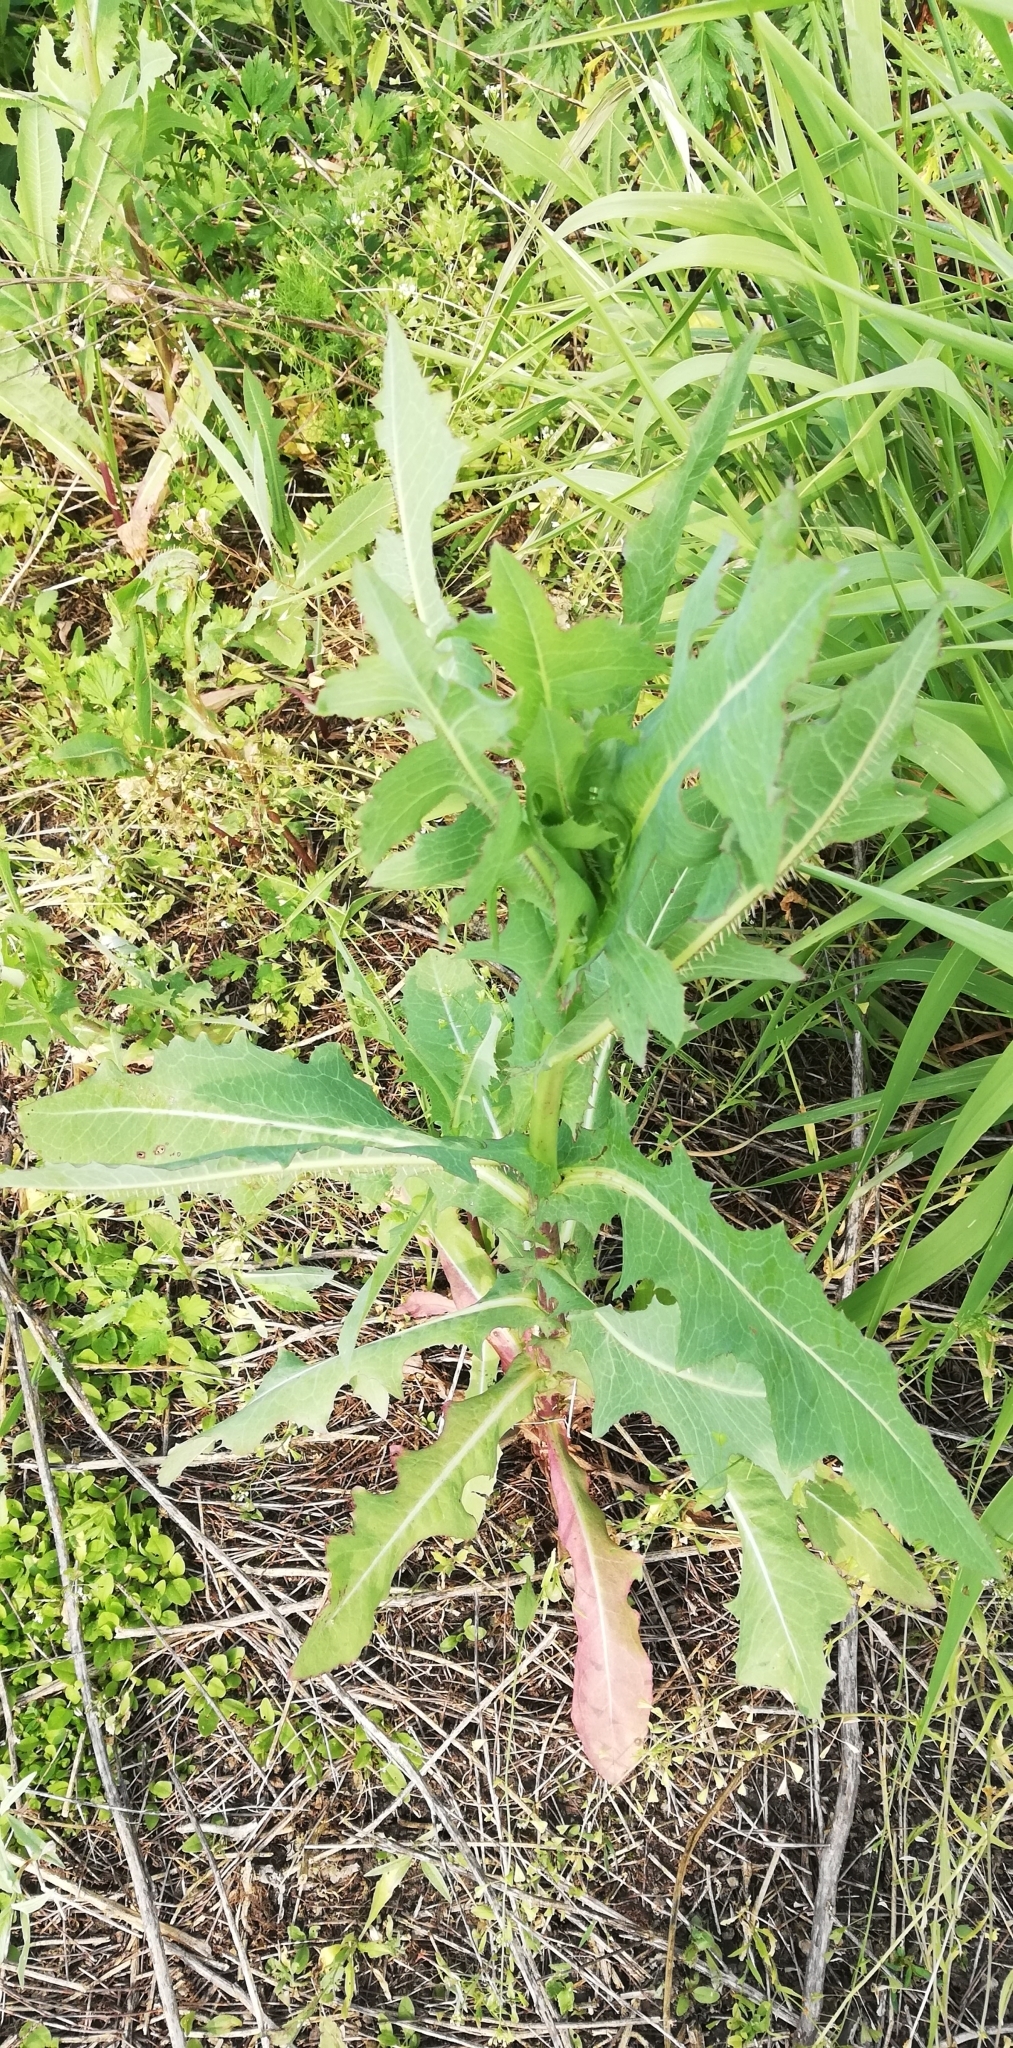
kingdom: Plantae
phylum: Tracheophyta
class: Magnoliopsida
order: Asterales
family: Asteraceae
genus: Lactuca
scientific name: Lactuca serriola
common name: Prickly lettuce
